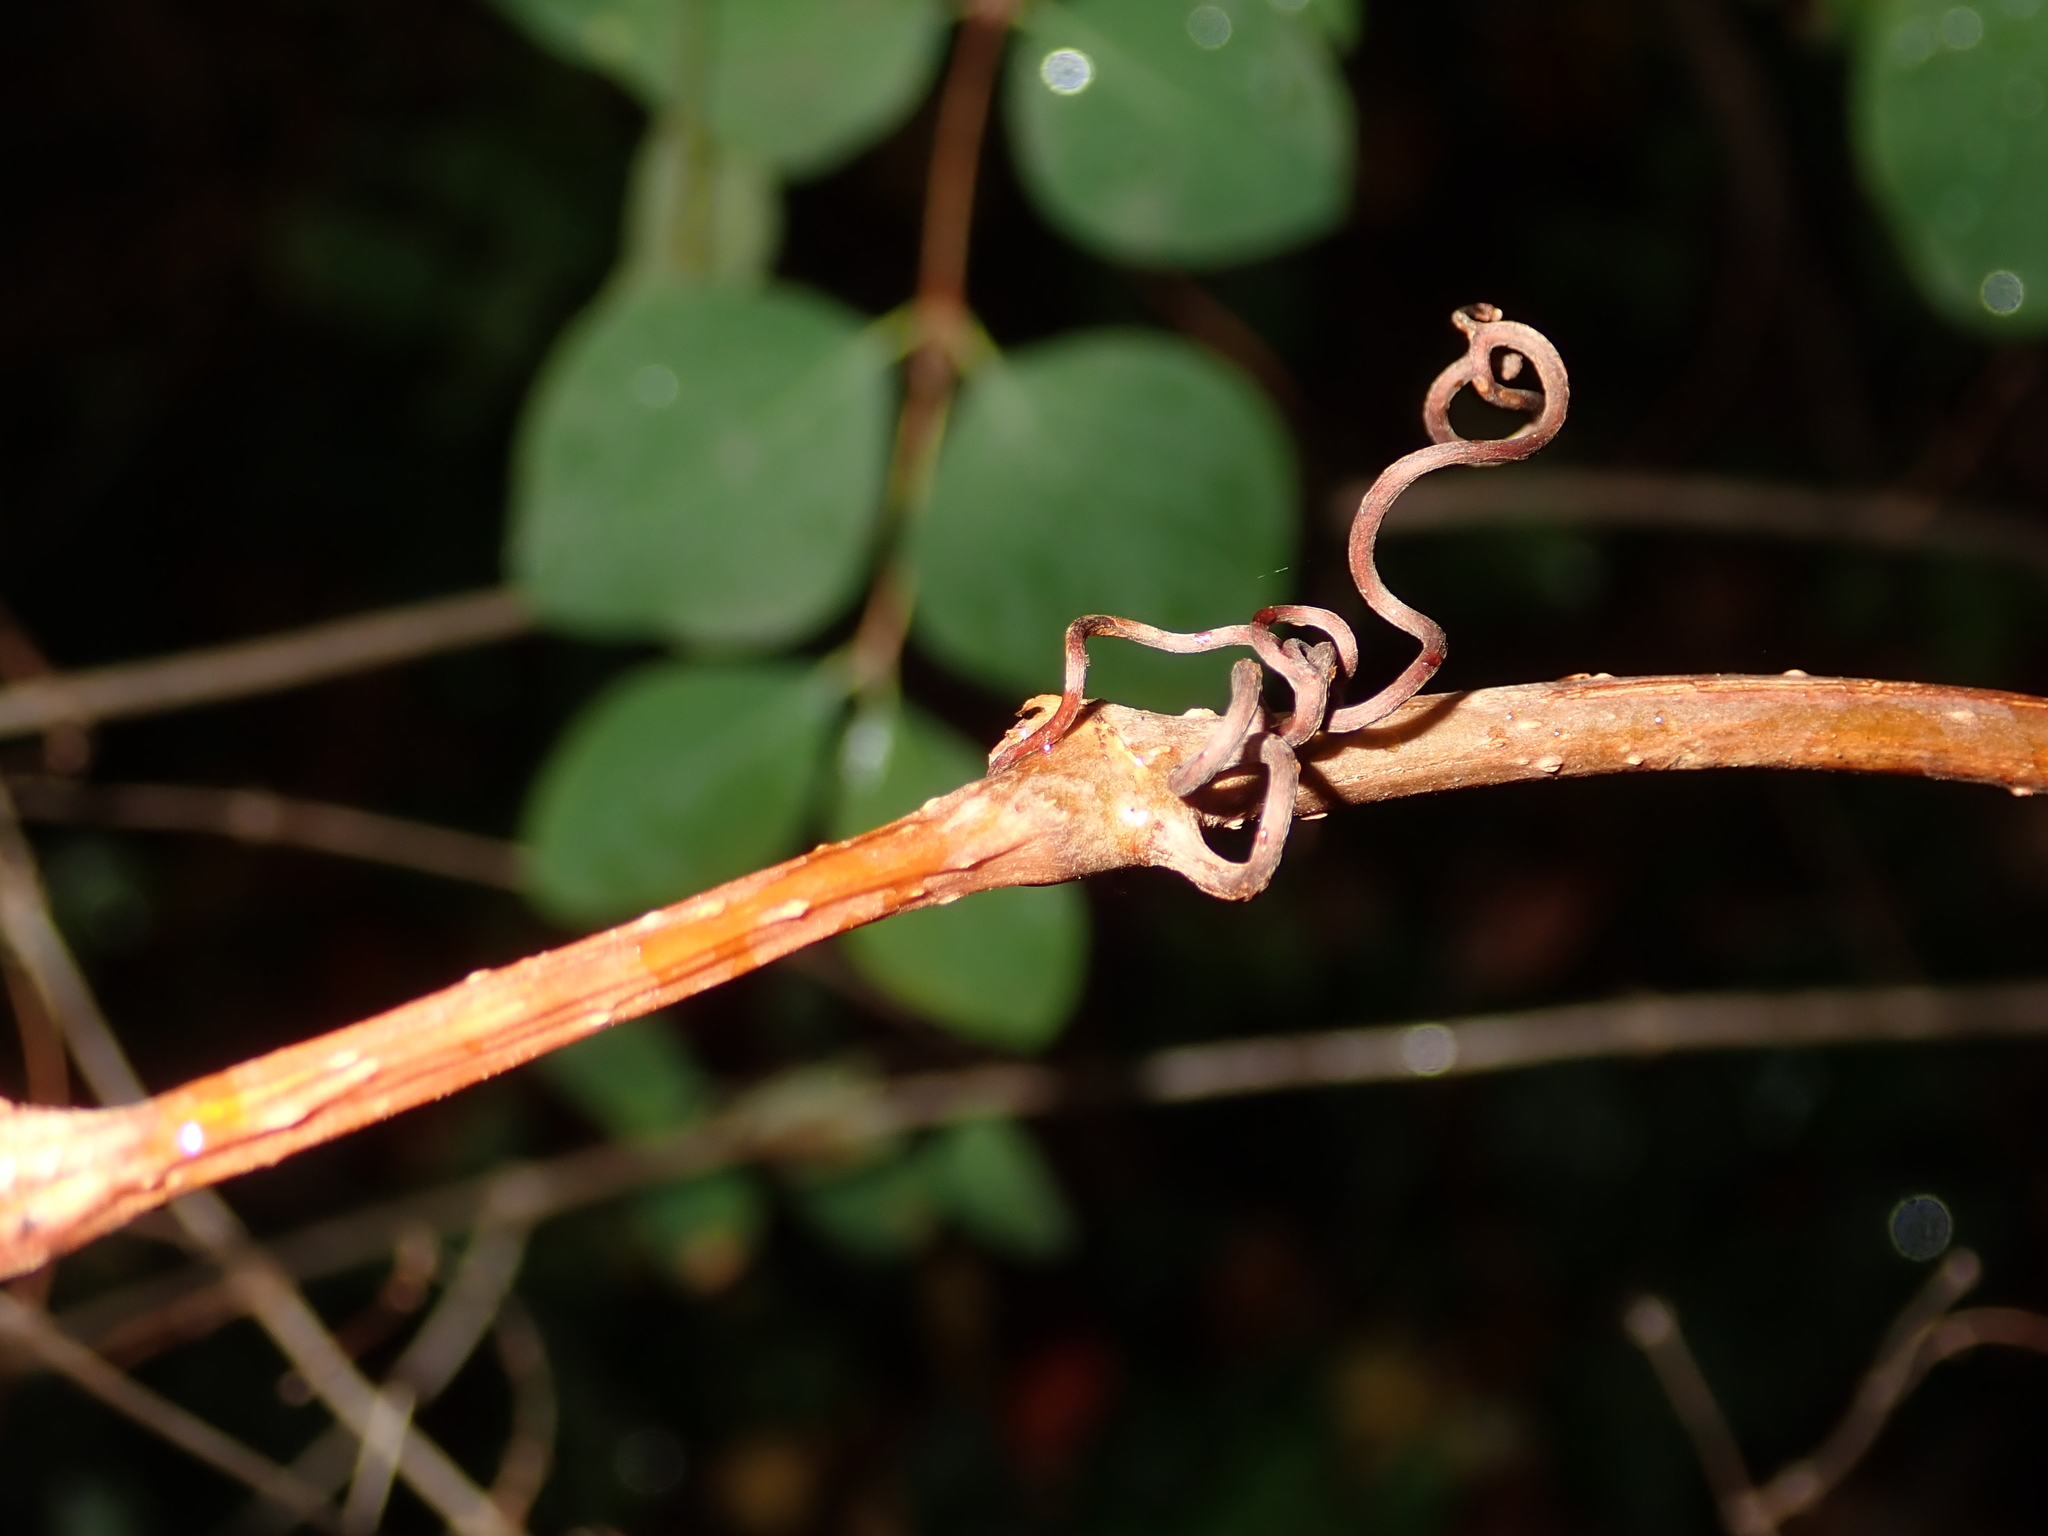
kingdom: Plantae
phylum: Tracheophyta
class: Magnoliopsida
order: Vitales
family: Vitaceae
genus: Parthenocissus
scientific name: Parthenocissus inserta
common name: False virginia-creeper
